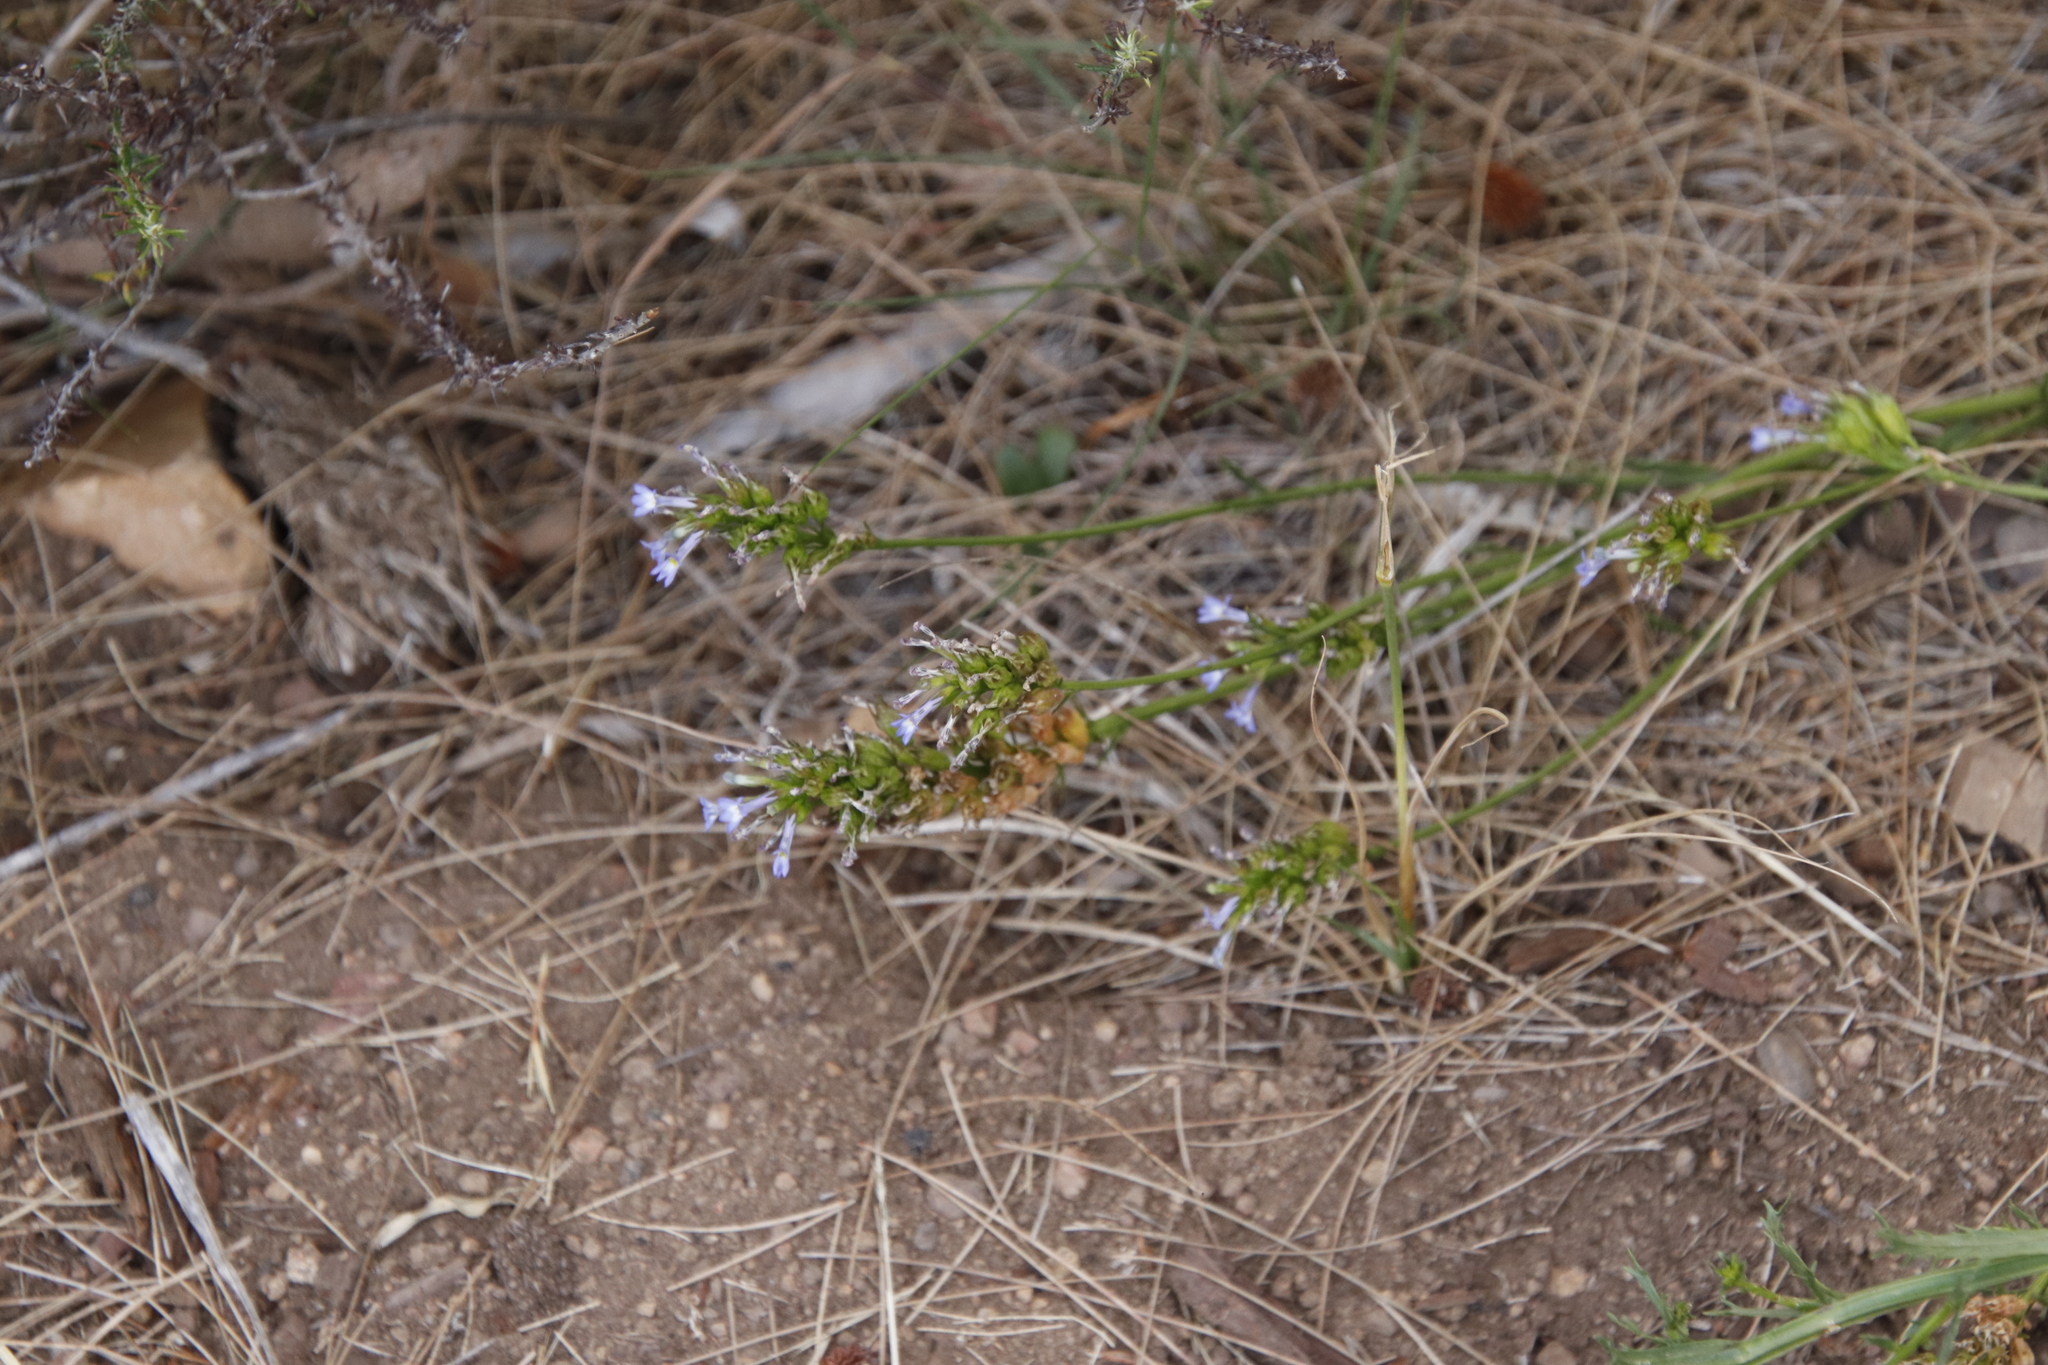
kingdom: Plantae
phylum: Tracheophyta
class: Magnoliopsida
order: Asterales
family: Campanulaceae
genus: Lobelia
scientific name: Lobelia comosa
